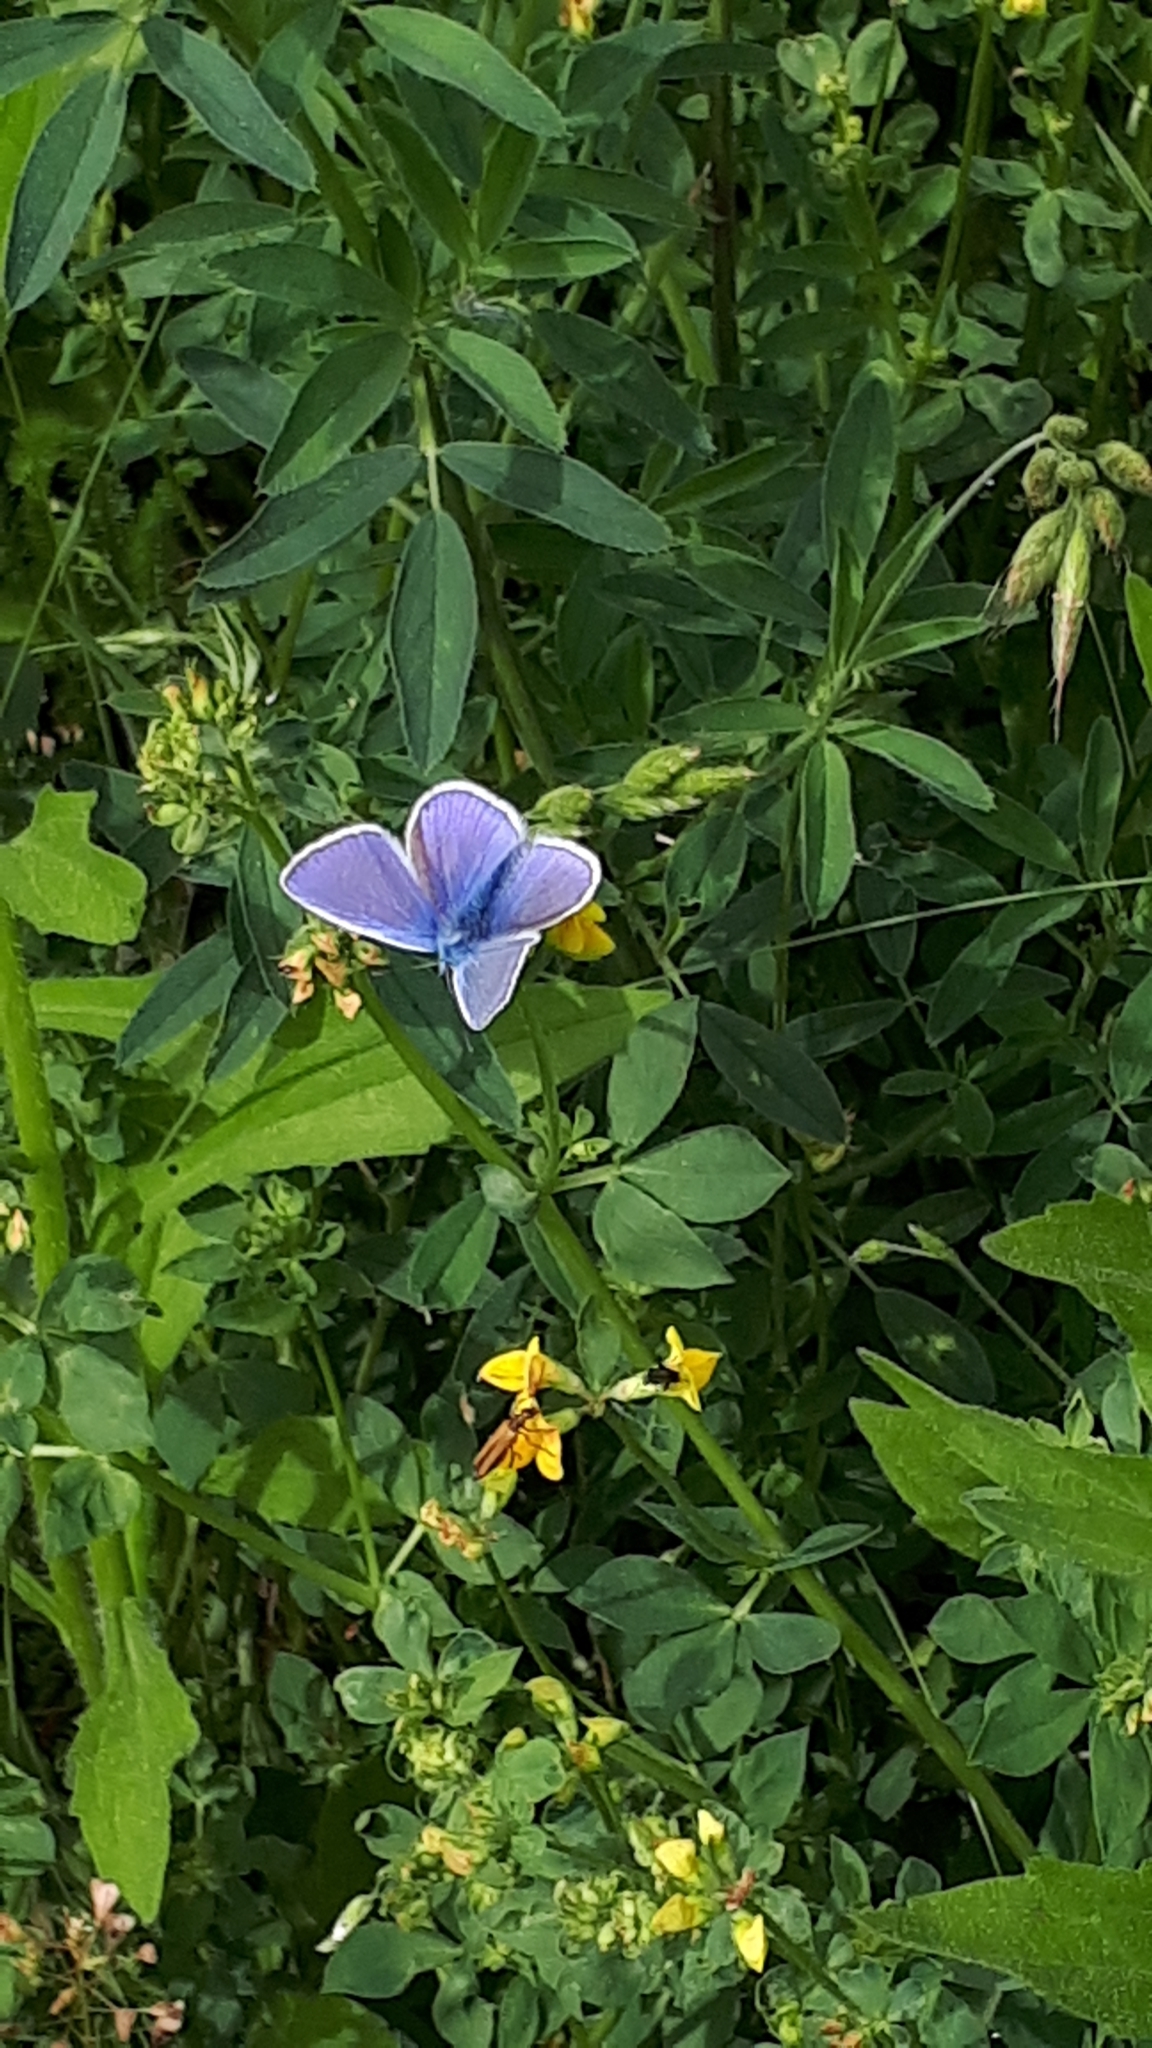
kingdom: Animalia
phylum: Arthropoda
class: Insecta
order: Lepidoptera
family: Lycaenidae
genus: Polyommatus
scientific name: Polyommatus icarus
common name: Common blue
